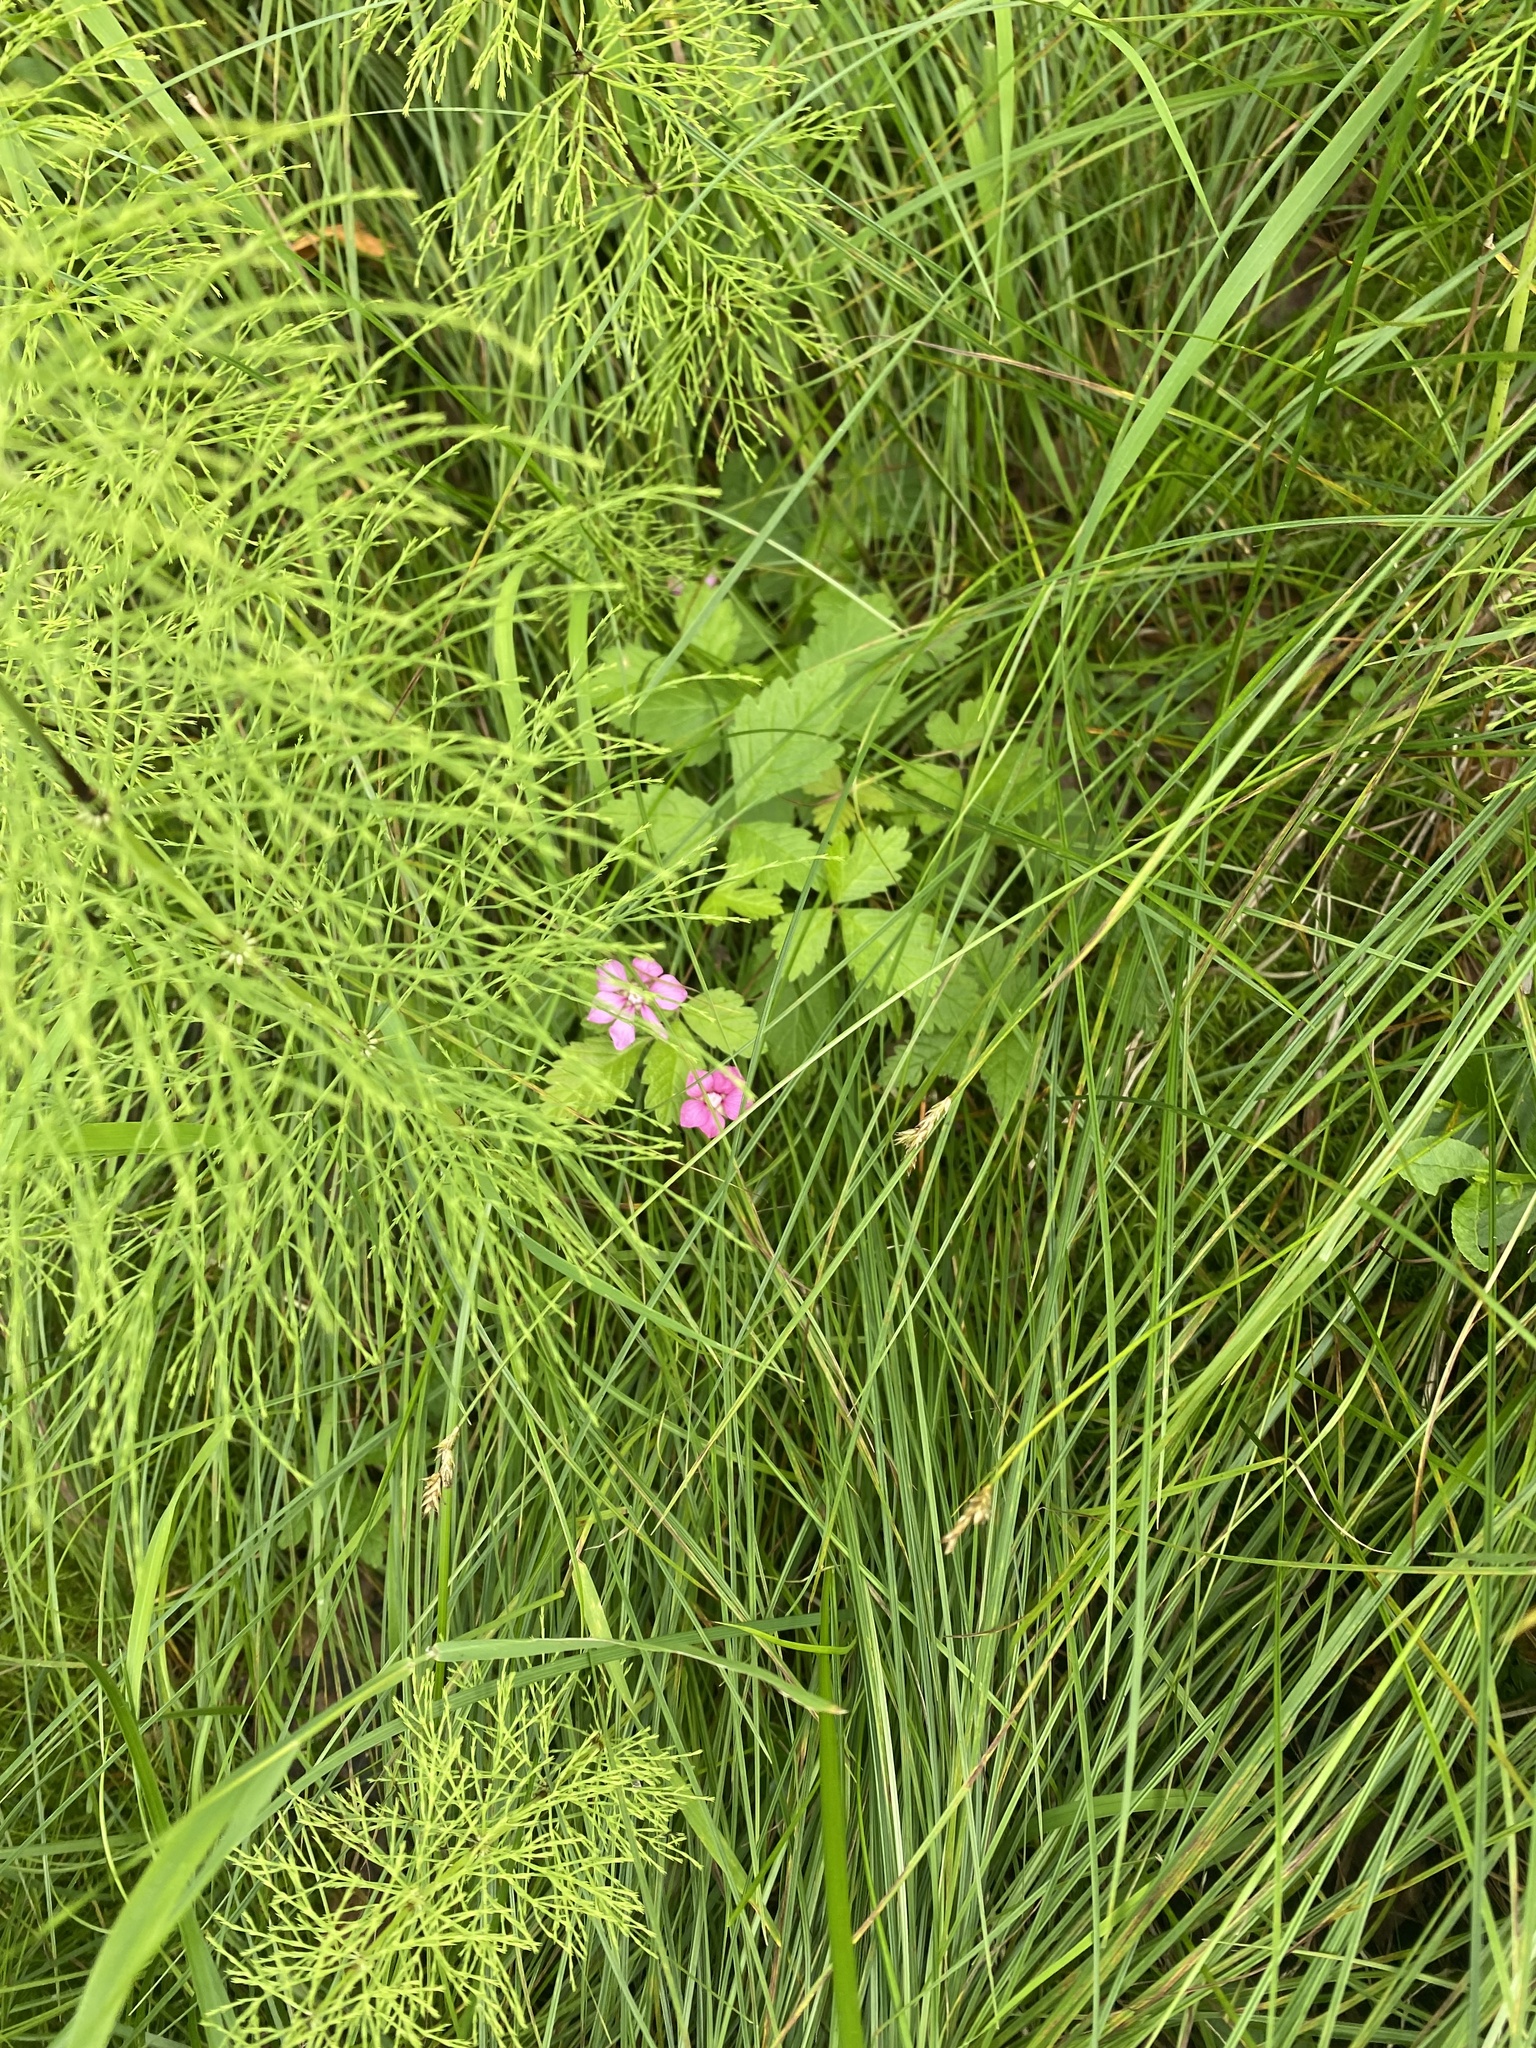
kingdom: Plantae
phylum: Tracheophyta
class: Magnoliopsida
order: Rosales
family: Rosaceae
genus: Rubus
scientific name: Rubus arcticus
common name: Arctic bramble
